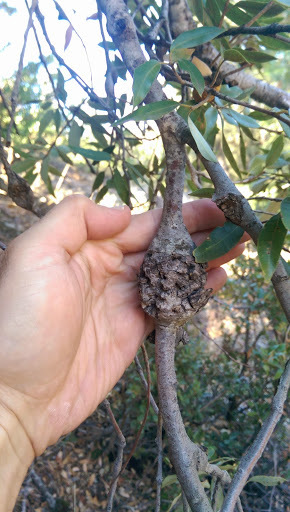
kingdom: Animalia
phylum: Arthropoda
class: Insecta
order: Hymenoptera
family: Cynipidae
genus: Dryocosmus
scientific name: Dryocosmus
